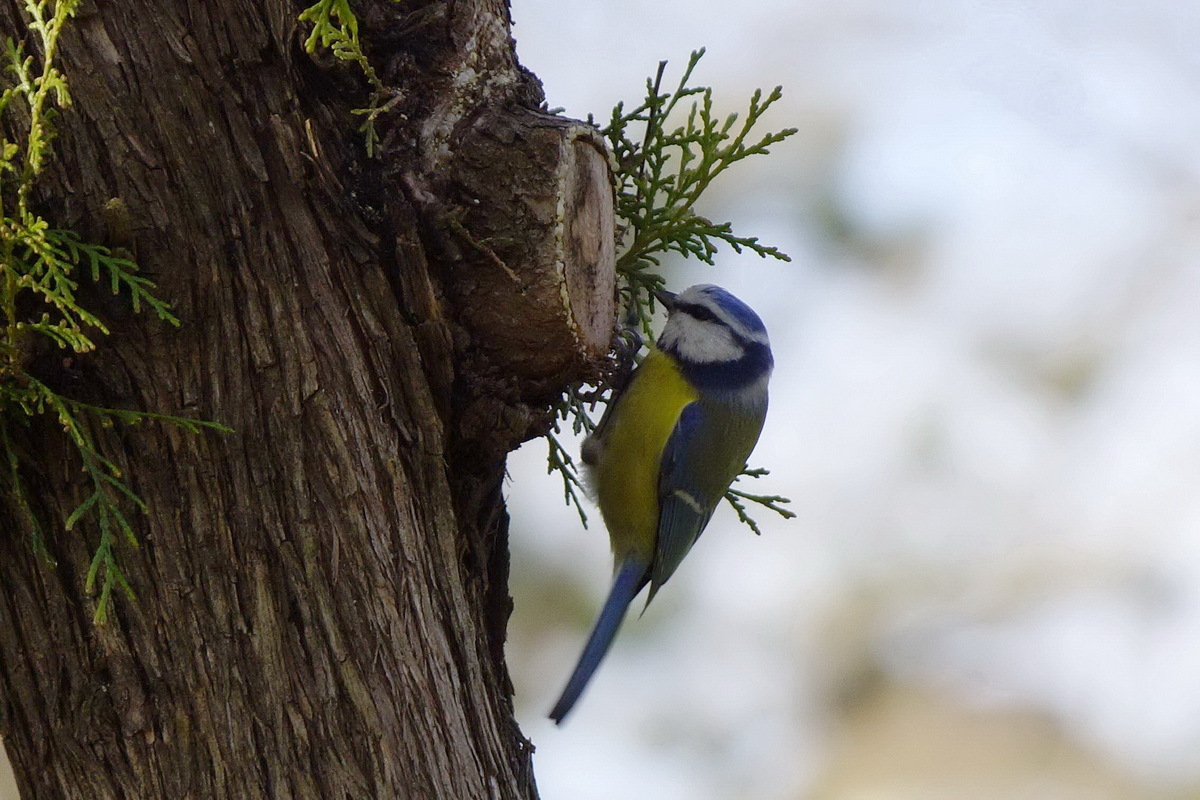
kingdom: Animalia
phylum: Chordata
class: Aves
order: Passeriformes
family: Paridae
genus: Cyanistes
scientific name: Cyanistes caeruleus
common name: Eurasian blue tit
